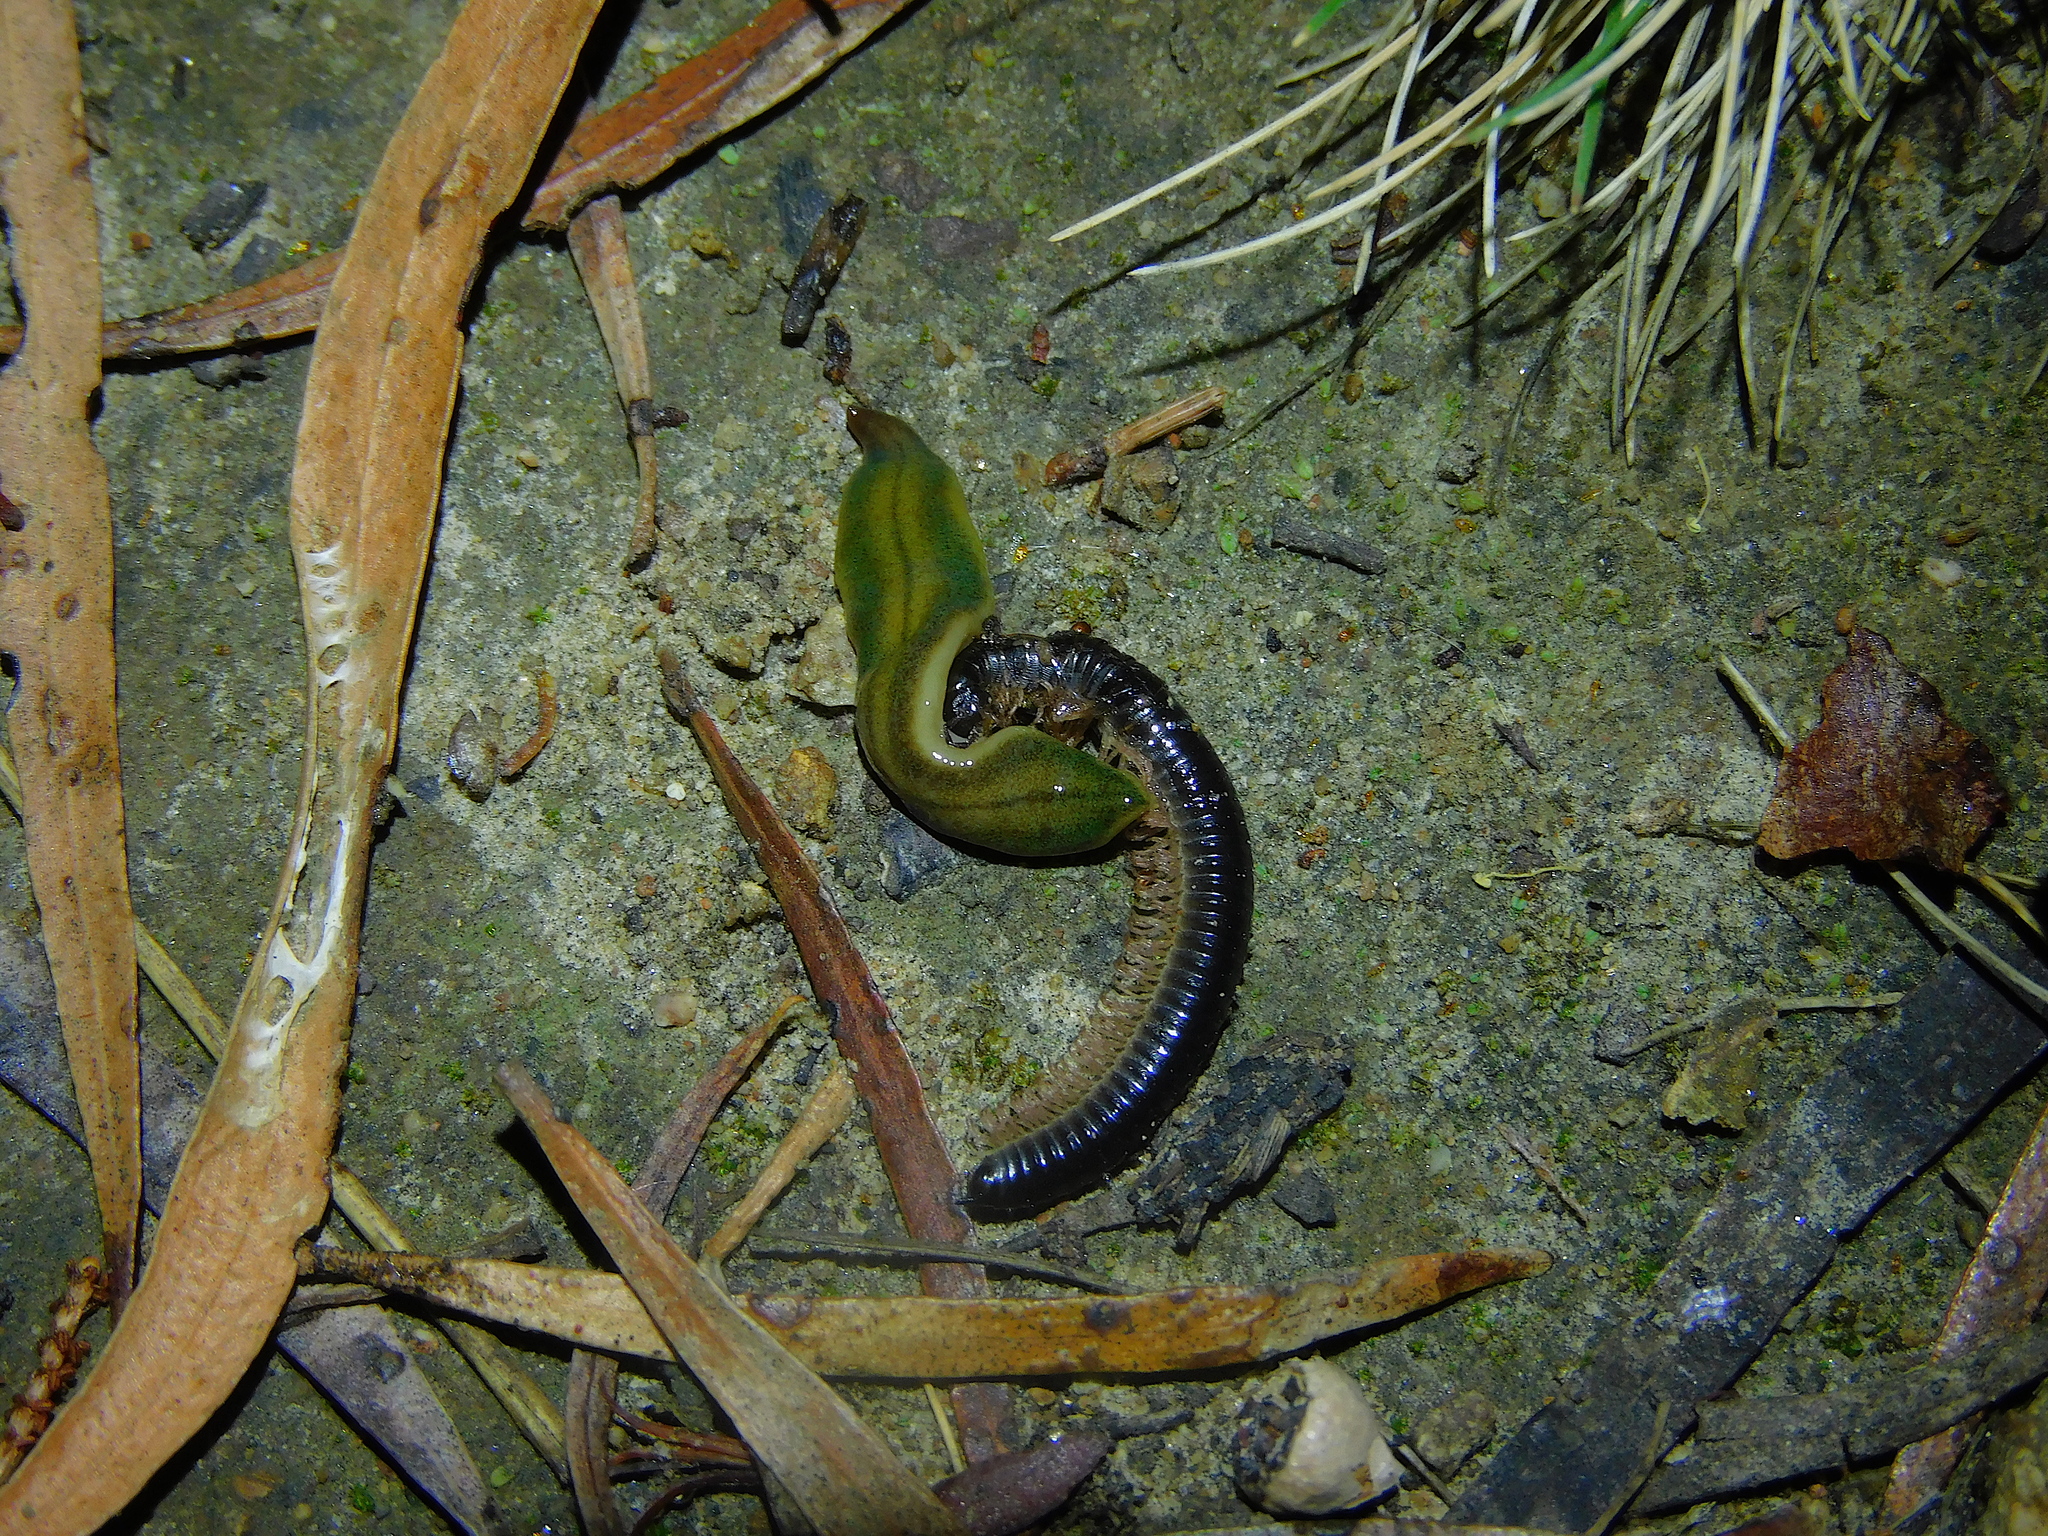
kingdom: Animalia
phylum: Platyhelminthes
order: Tricladida
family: Geoplanidae
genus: Tasmanoplana
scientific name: Tasmanoplana tasmaniana
